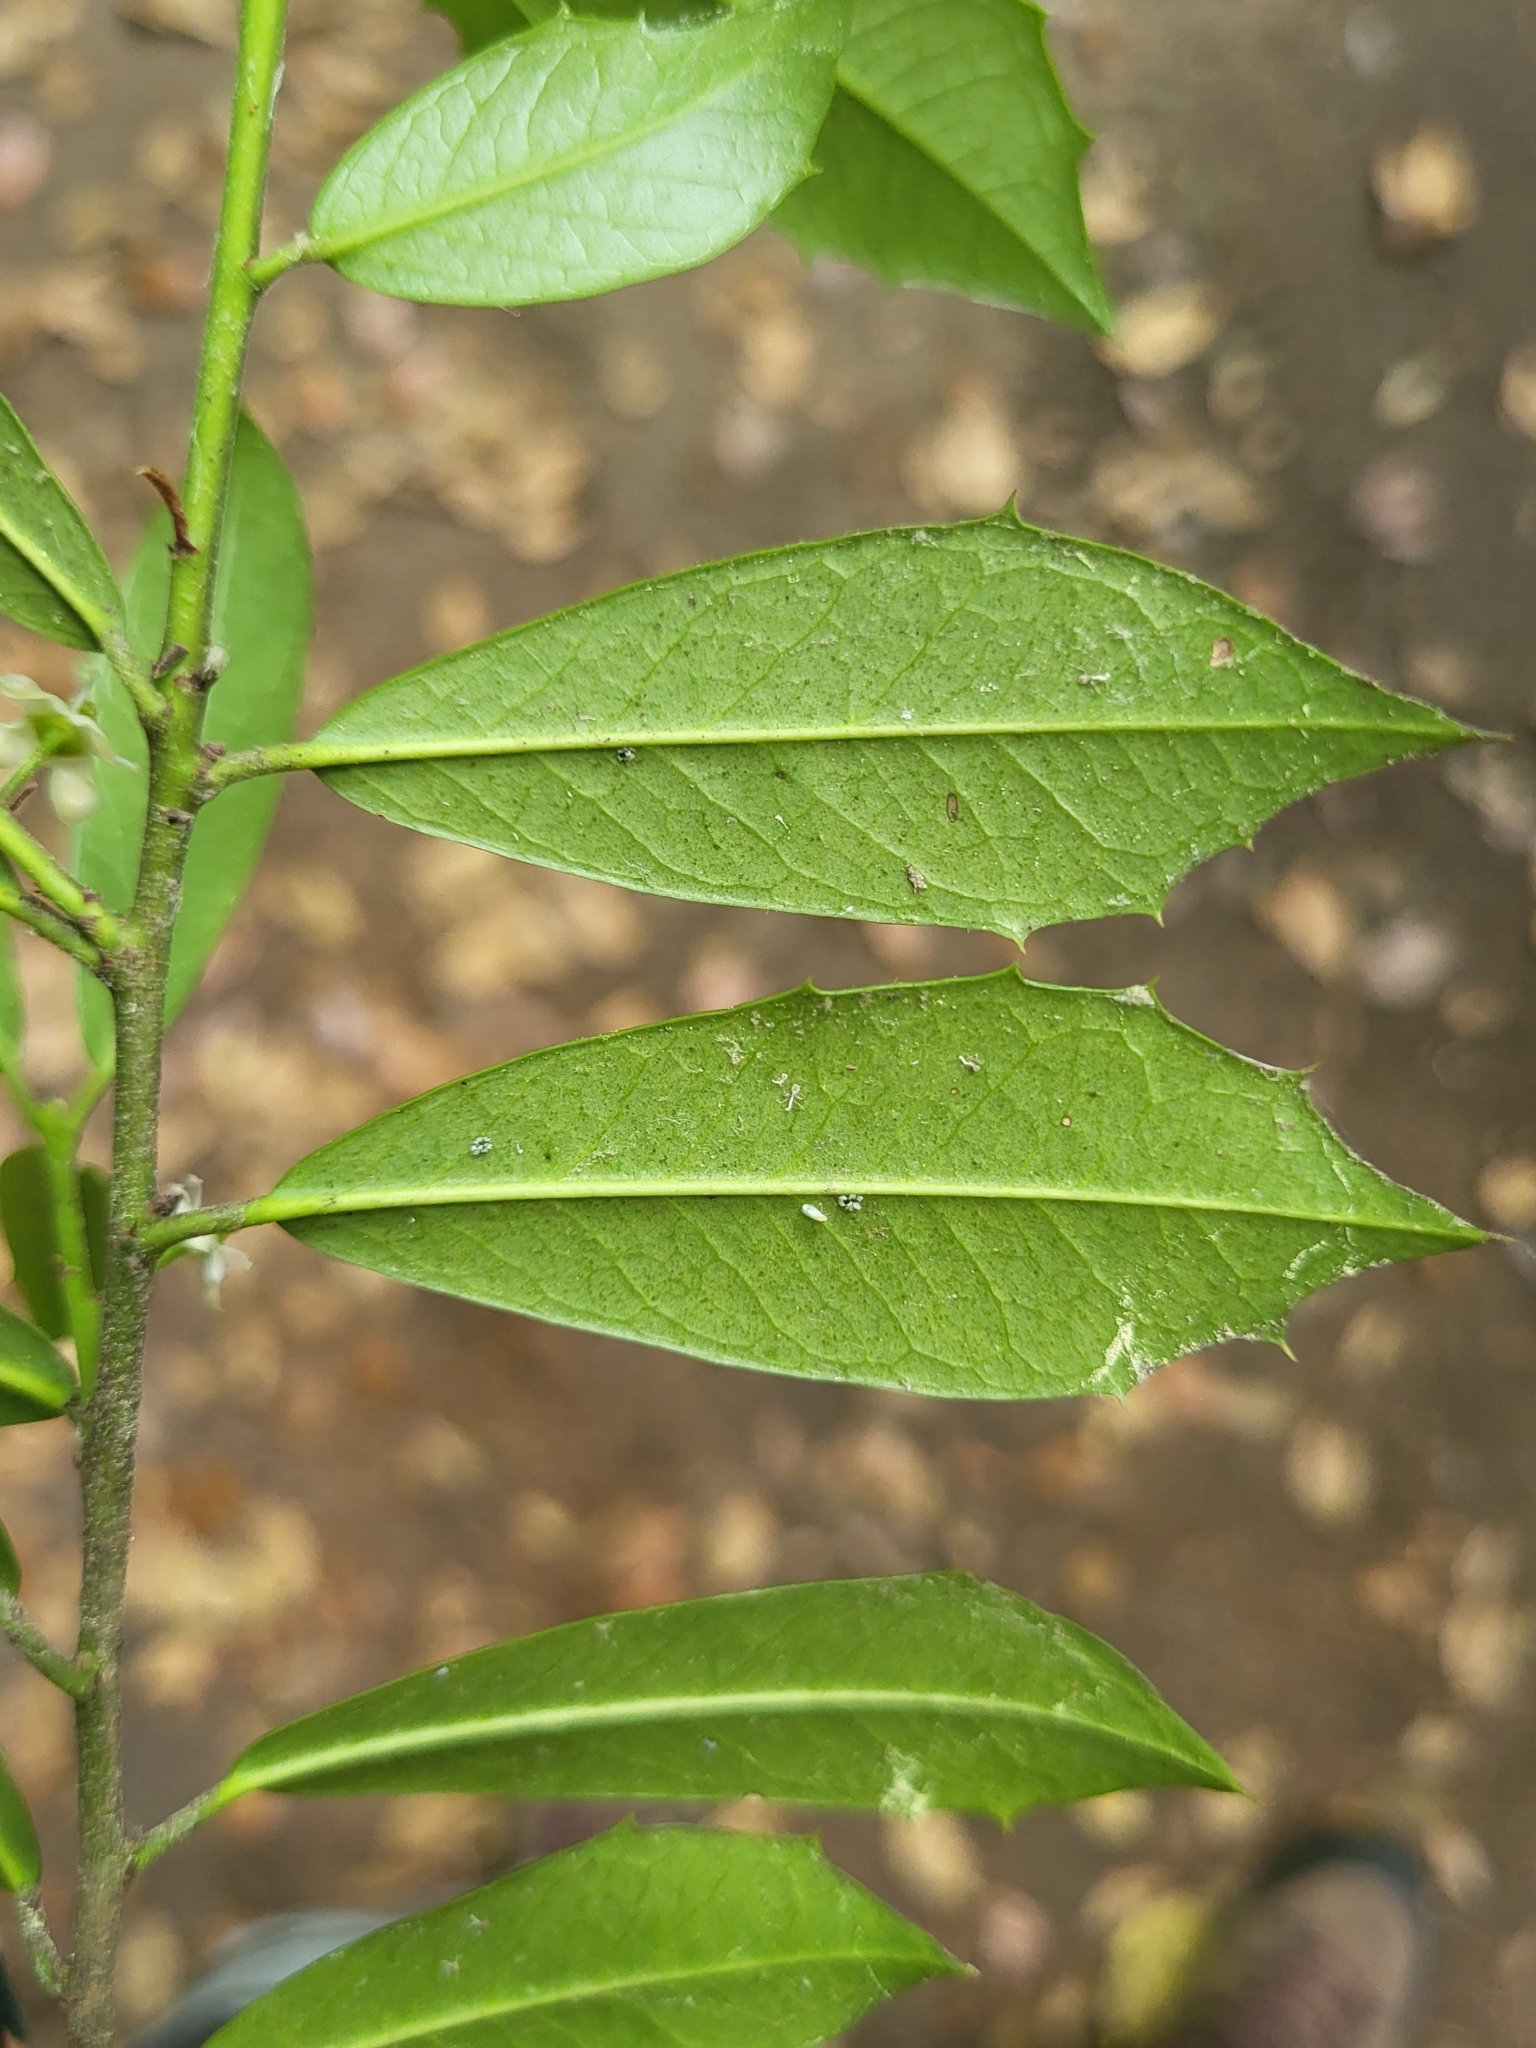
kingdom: Plantae
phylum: Tracheophyta
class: Magnoliopsida
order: Aquifoliales
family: Aquifoliaceae
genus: Ilex
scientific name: Ilex attenuata
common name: Topel holly
